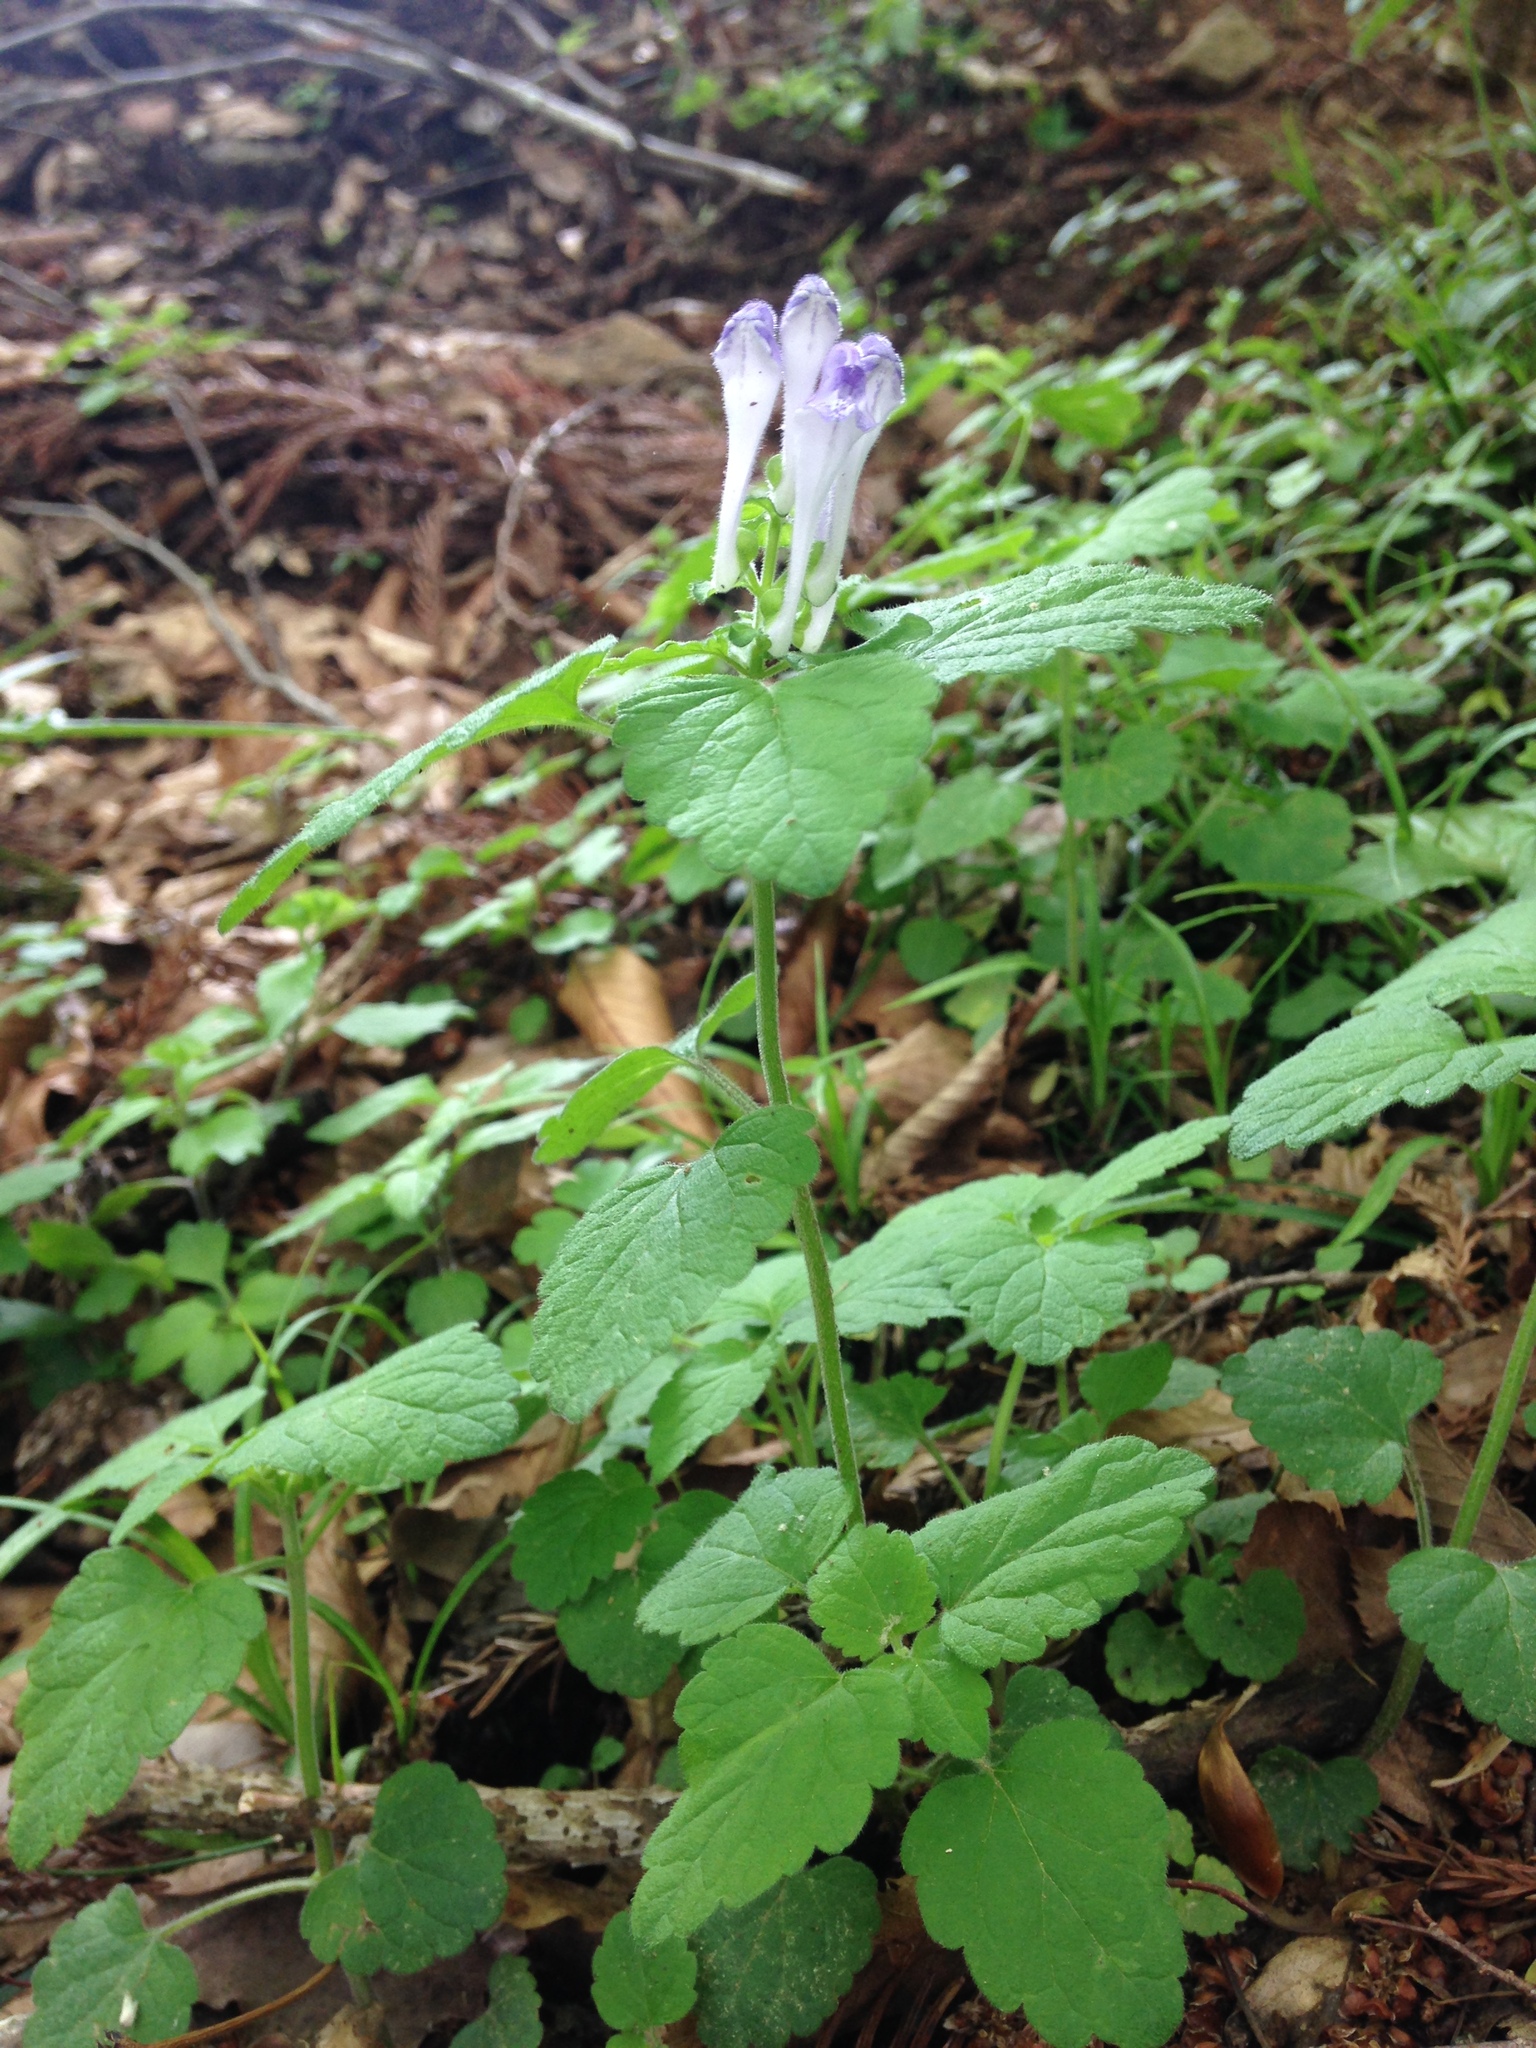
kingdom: Plantae
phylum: Tracheophyta
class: Magnoliopsida
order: Lamiales
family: Lamiaceae
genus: Scutellaria
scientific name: Scutellaria brachyspica
